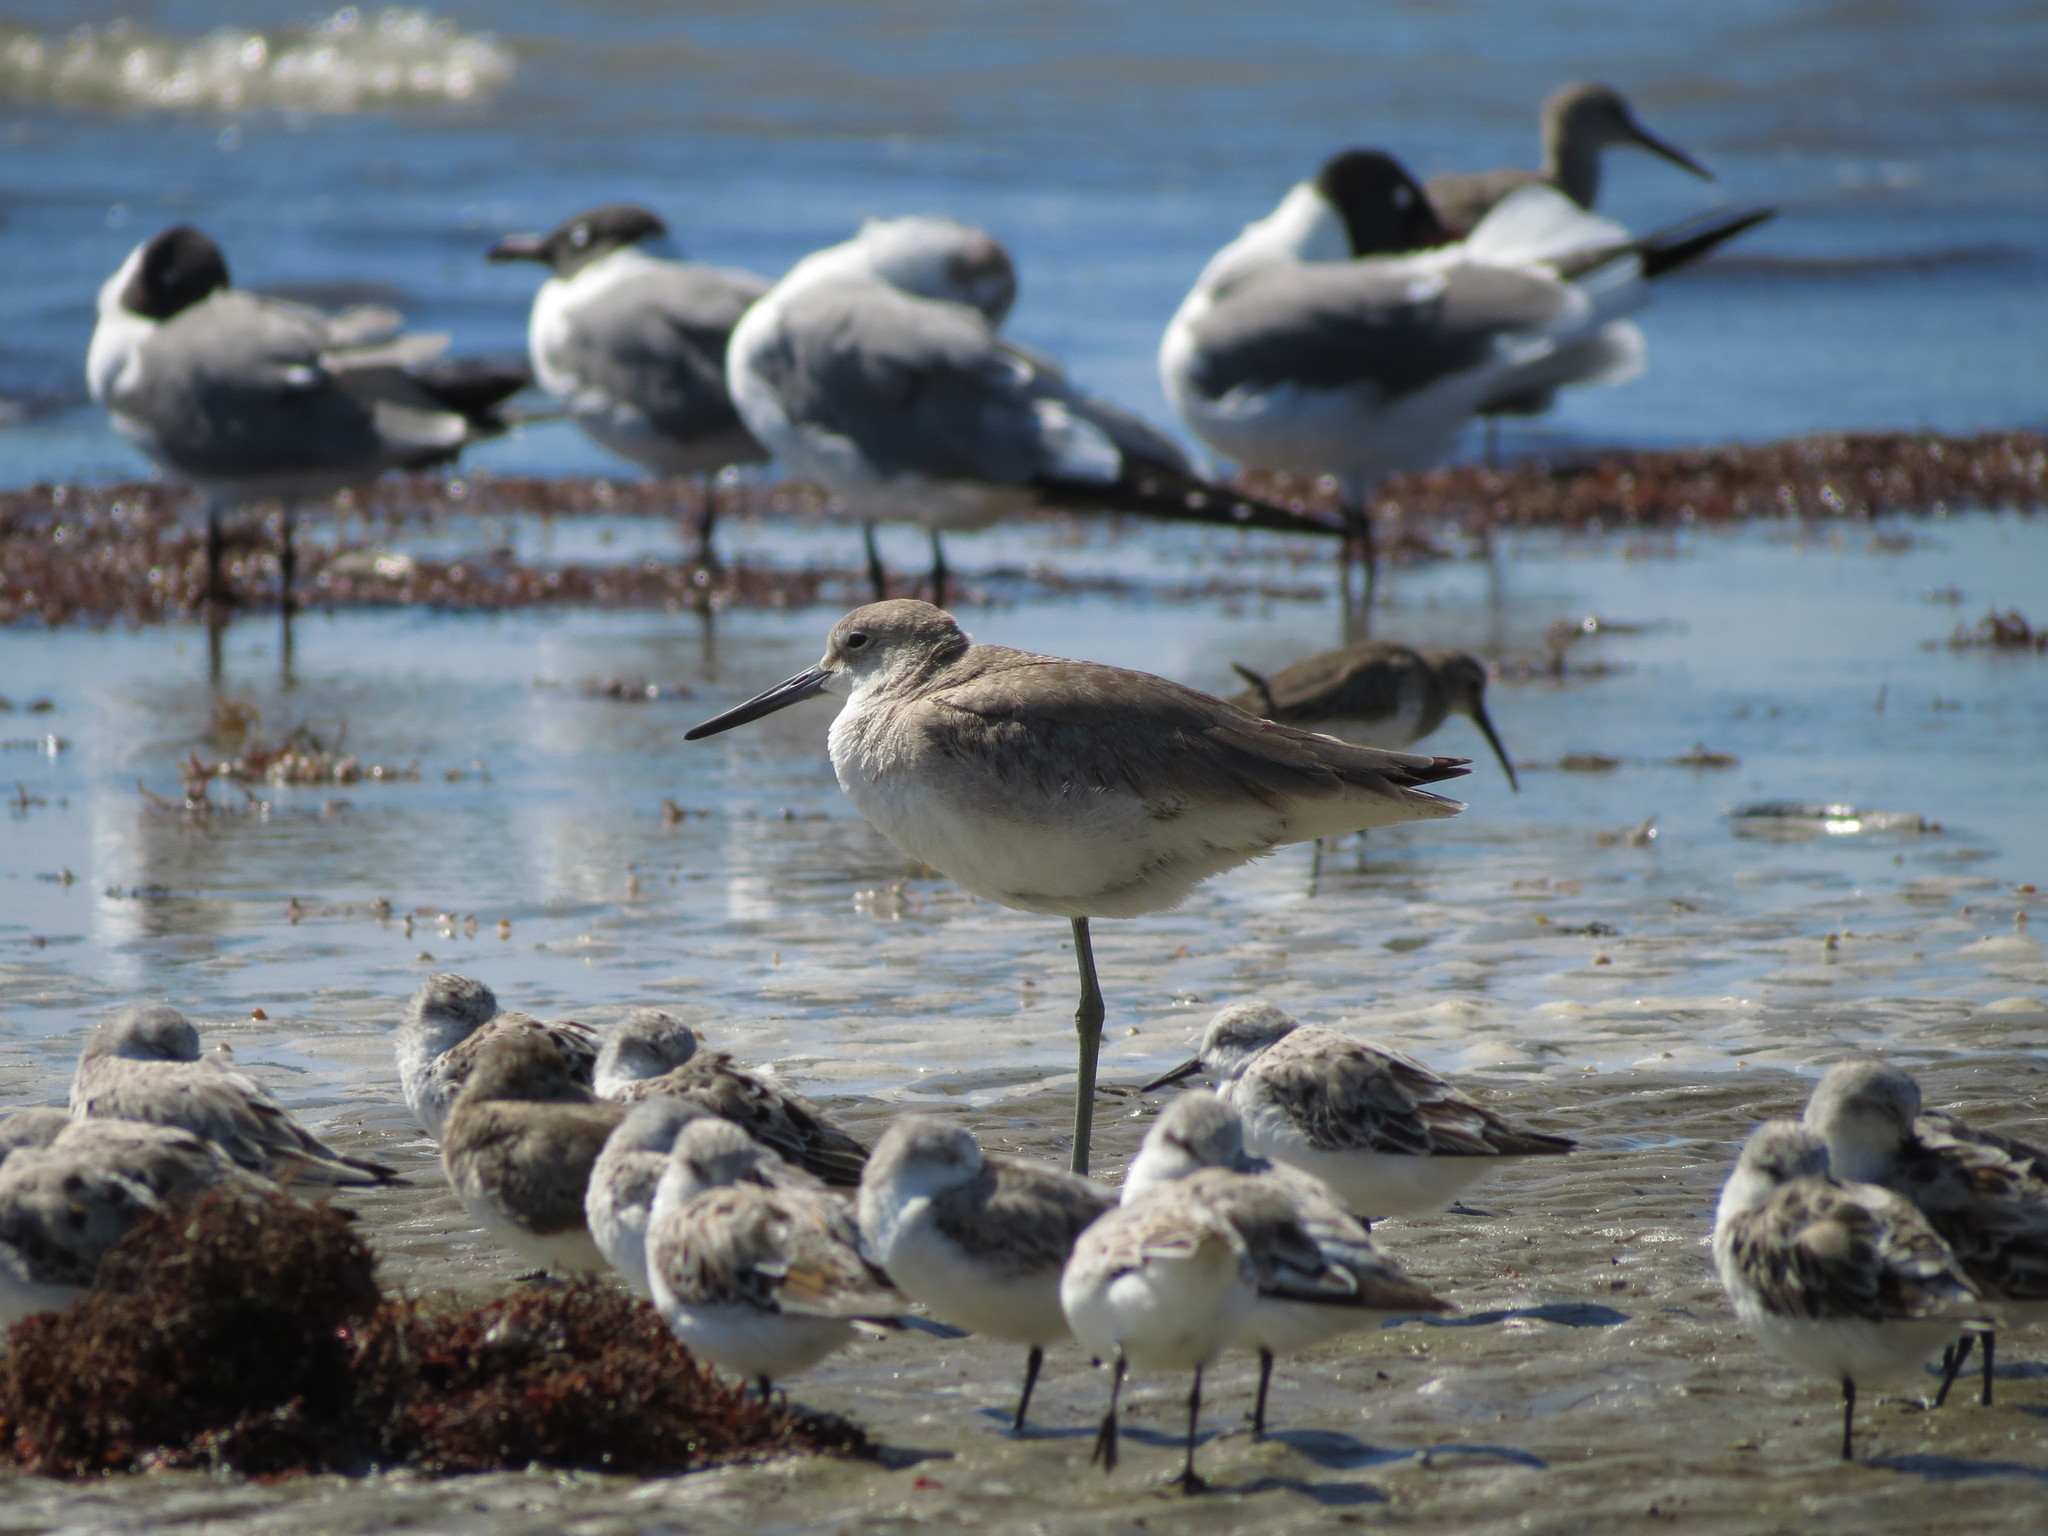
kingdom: Animalia
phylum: Chordata
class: Aves
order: Charadriiformes
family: Scolopacidae
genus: Tringa
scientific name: Tringa semipalmata
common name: Willet
